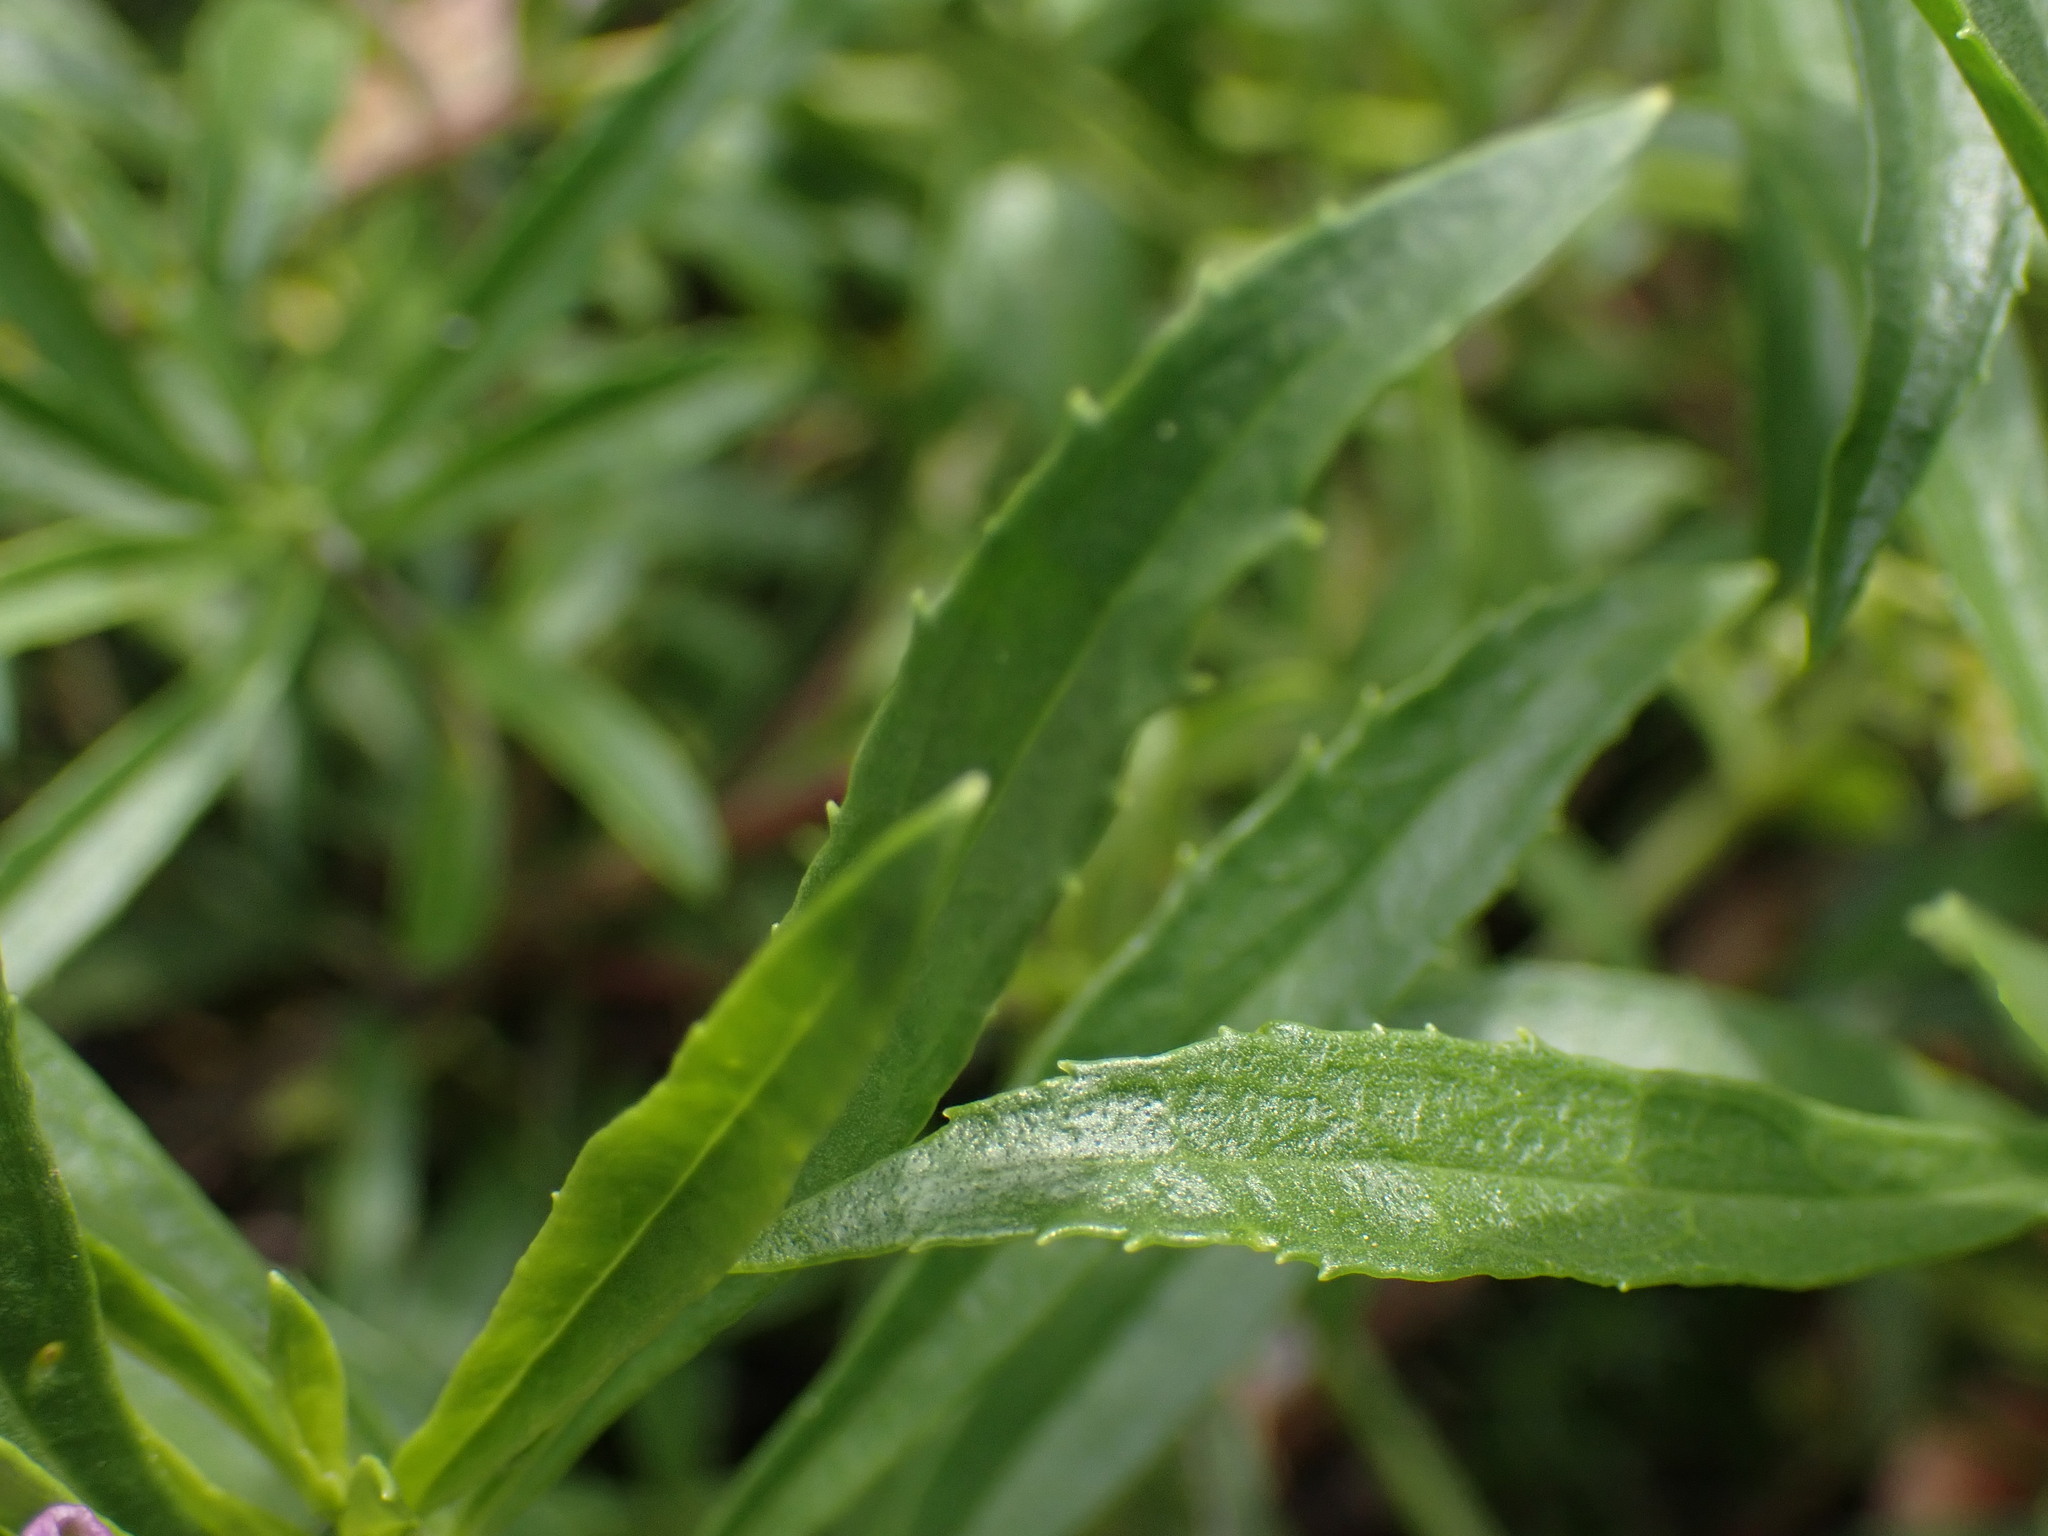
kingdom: Plantae
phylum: Tracheophyta
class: Magnoliopsida
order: Lamiales
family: Plantaginaceae
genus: Penstemon
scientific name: Penstemon fruticosus
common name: Bush penstemon
